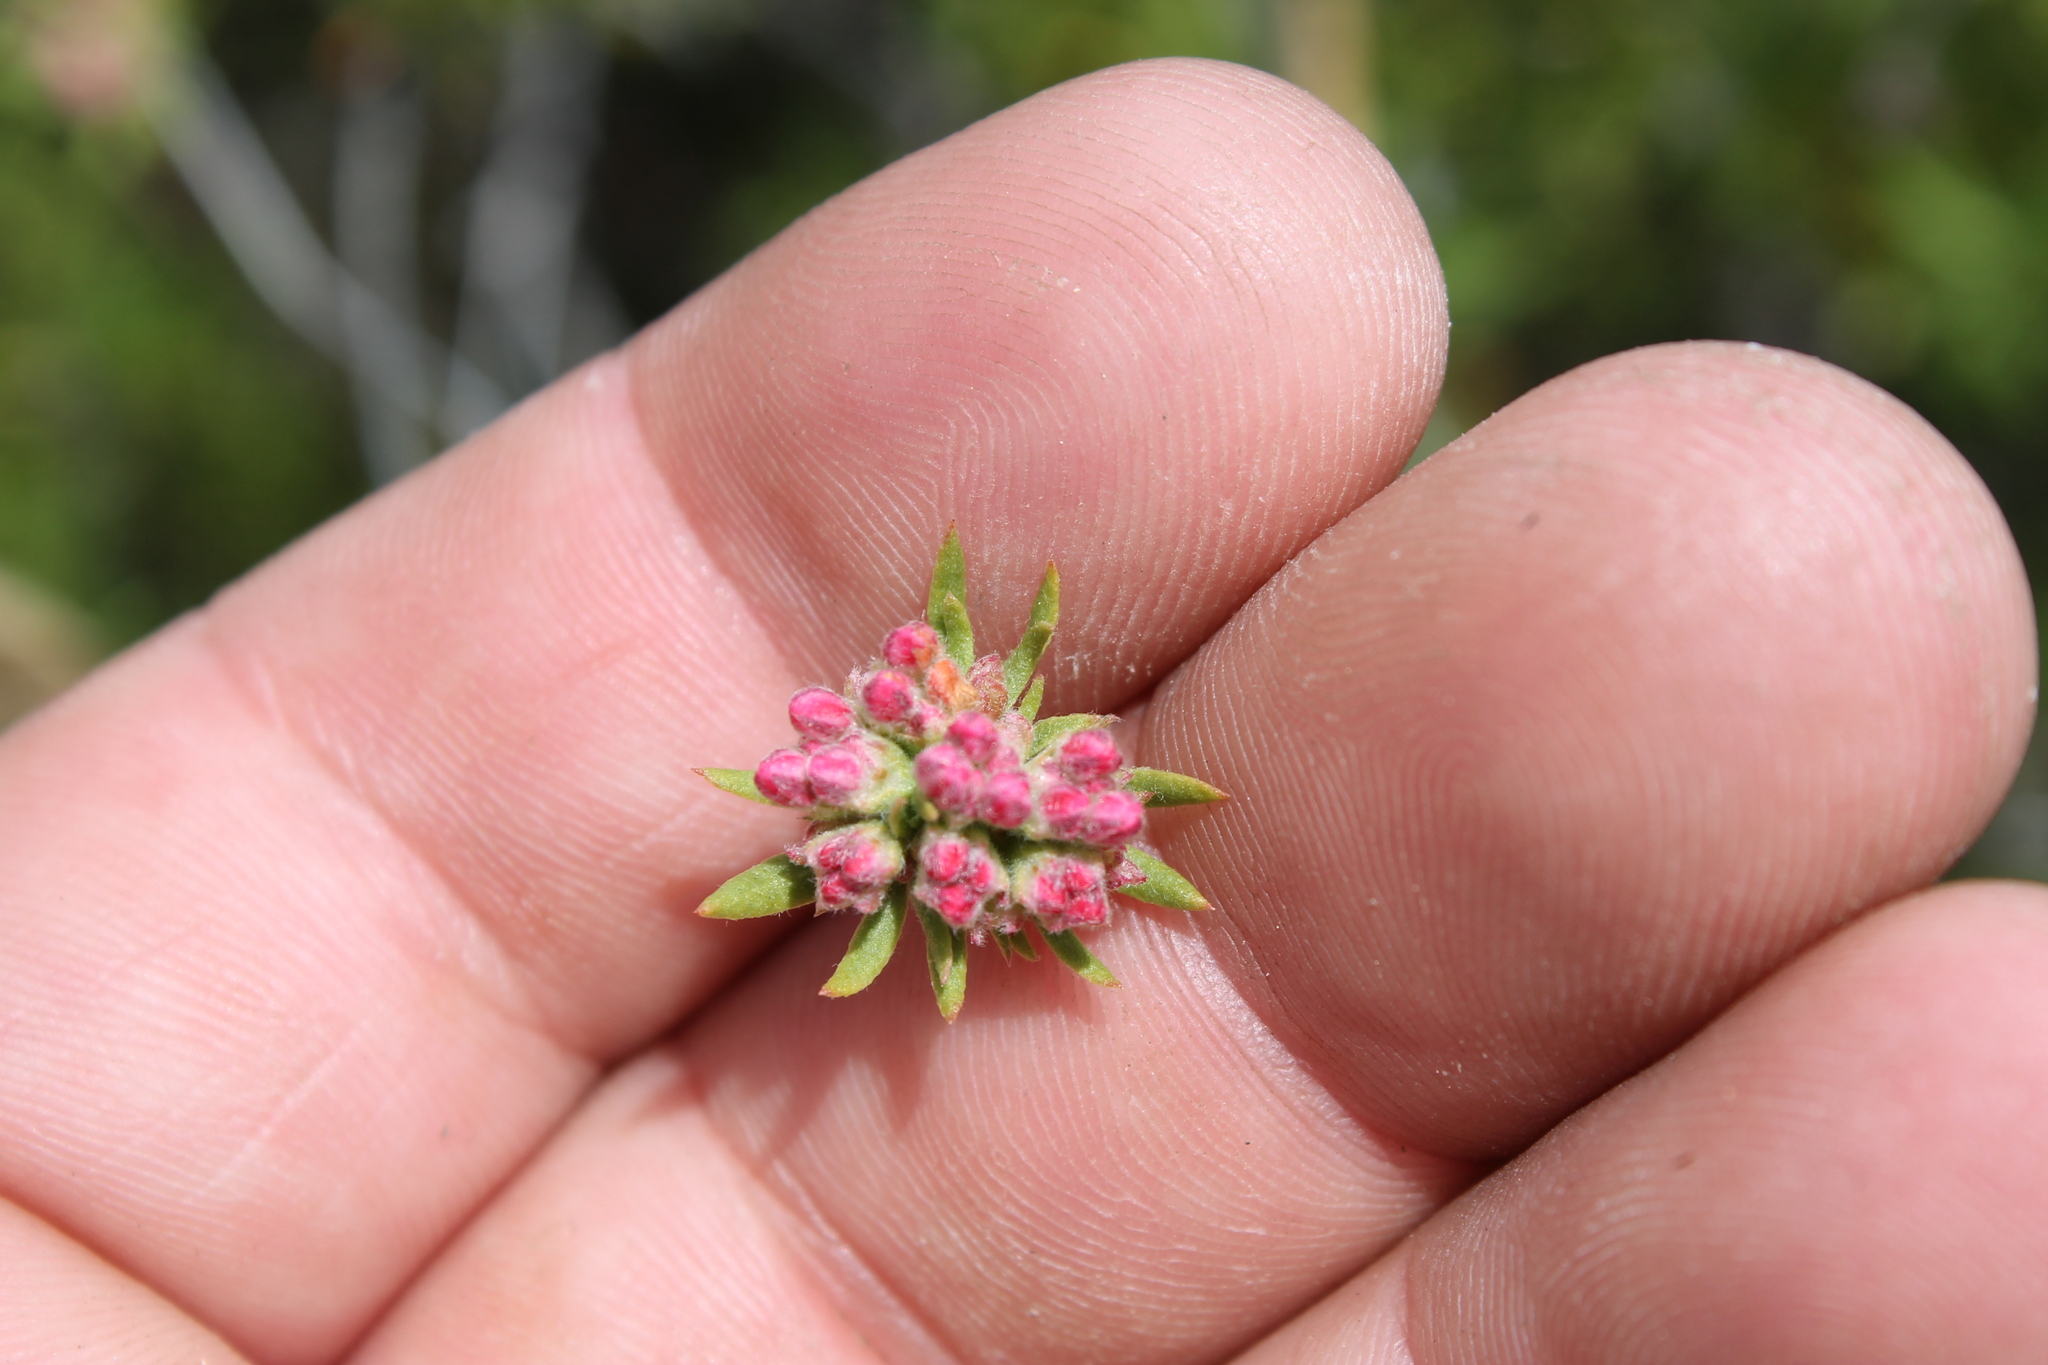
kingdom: Plantae
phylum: Tracheophyta
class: Magnoliopsida
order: Caryophyllales
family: Polygonaceae
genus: Eriogonum
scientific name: Eriogonum fasciculatum
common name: California wild buckwheat
